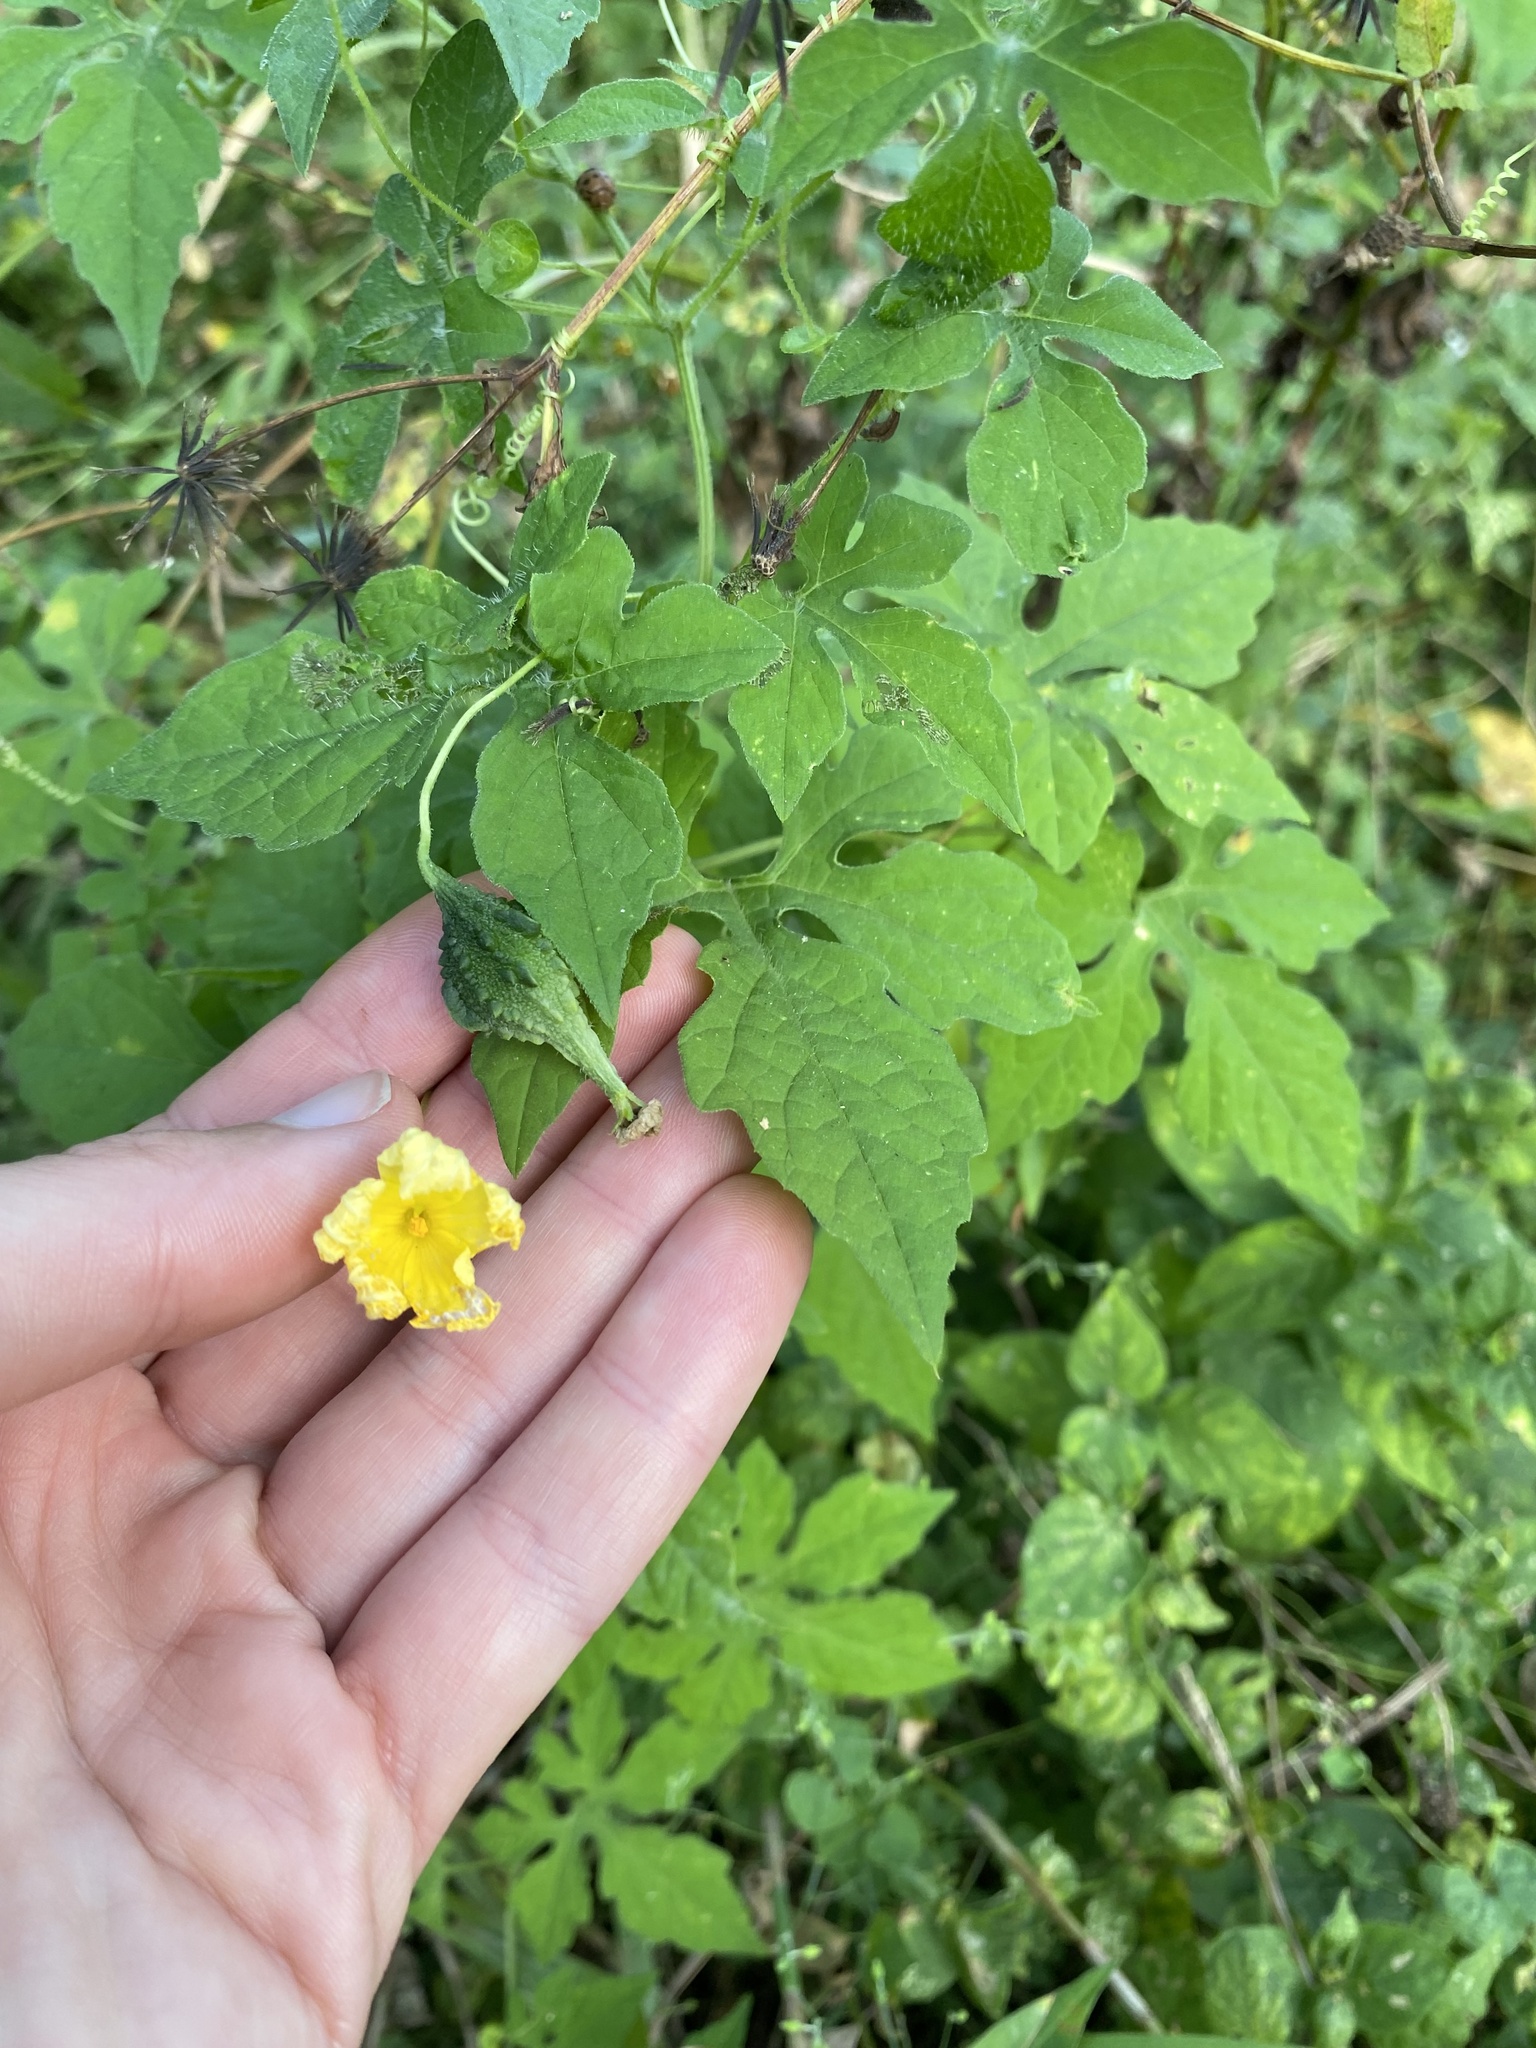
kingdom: Plantae
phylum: Tracheophyta
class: Magnoliopsida
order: Cucurbitales
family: Cucurbitaceae
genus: Momordica
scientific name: Momordica charantia
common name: Balsampear
